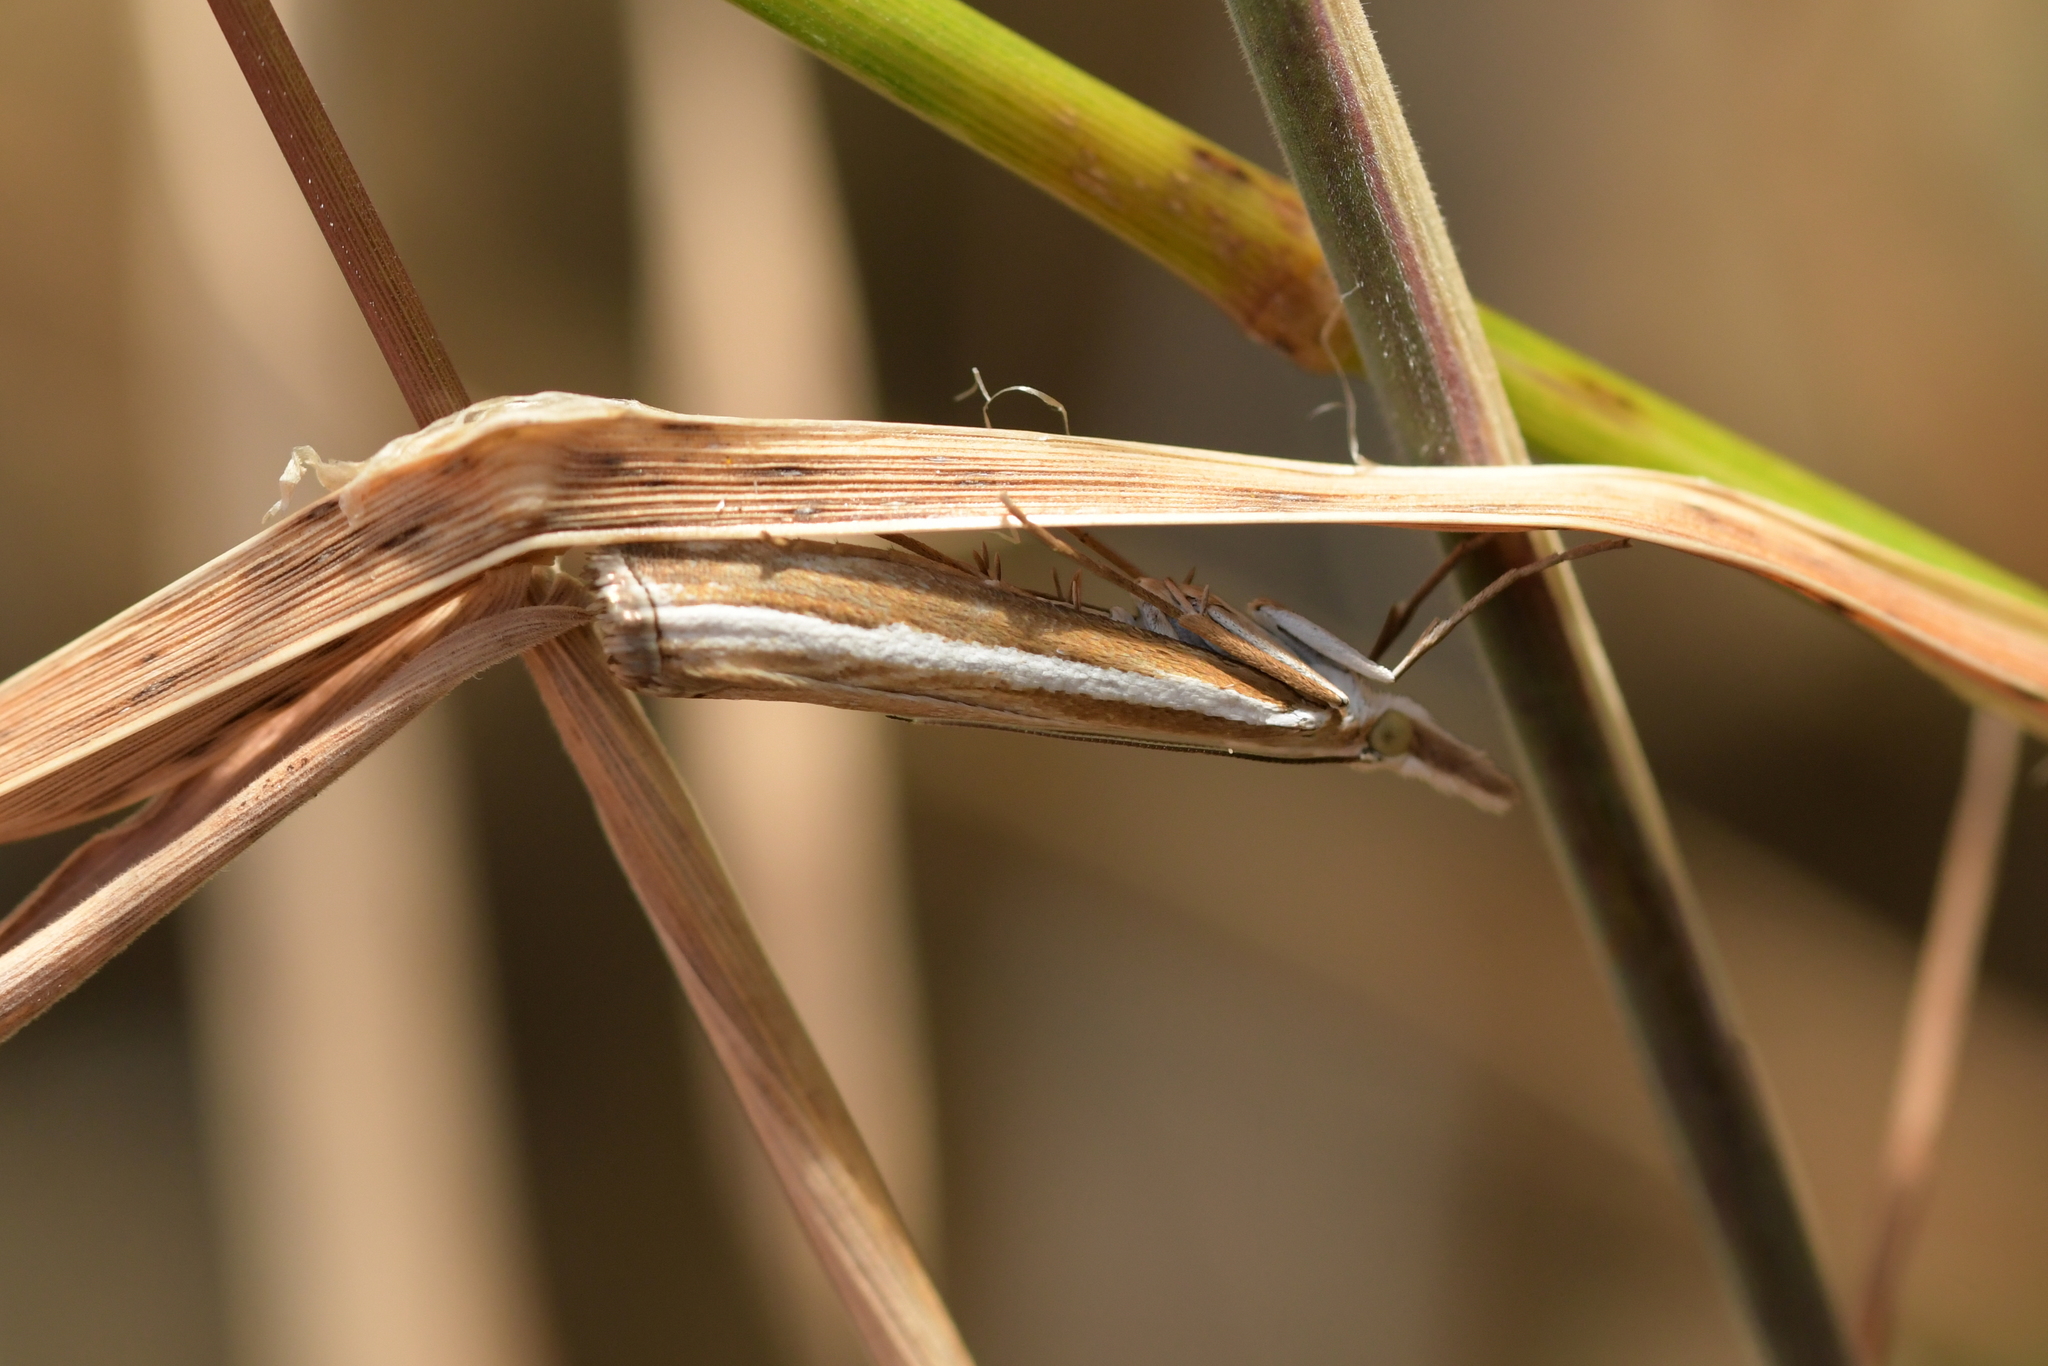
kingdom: Animalia
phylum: Arthropoda
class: Insecta
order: Lepidoptera
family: Crambidae
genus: Orocrambus
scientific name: Orocrambus vittellus
